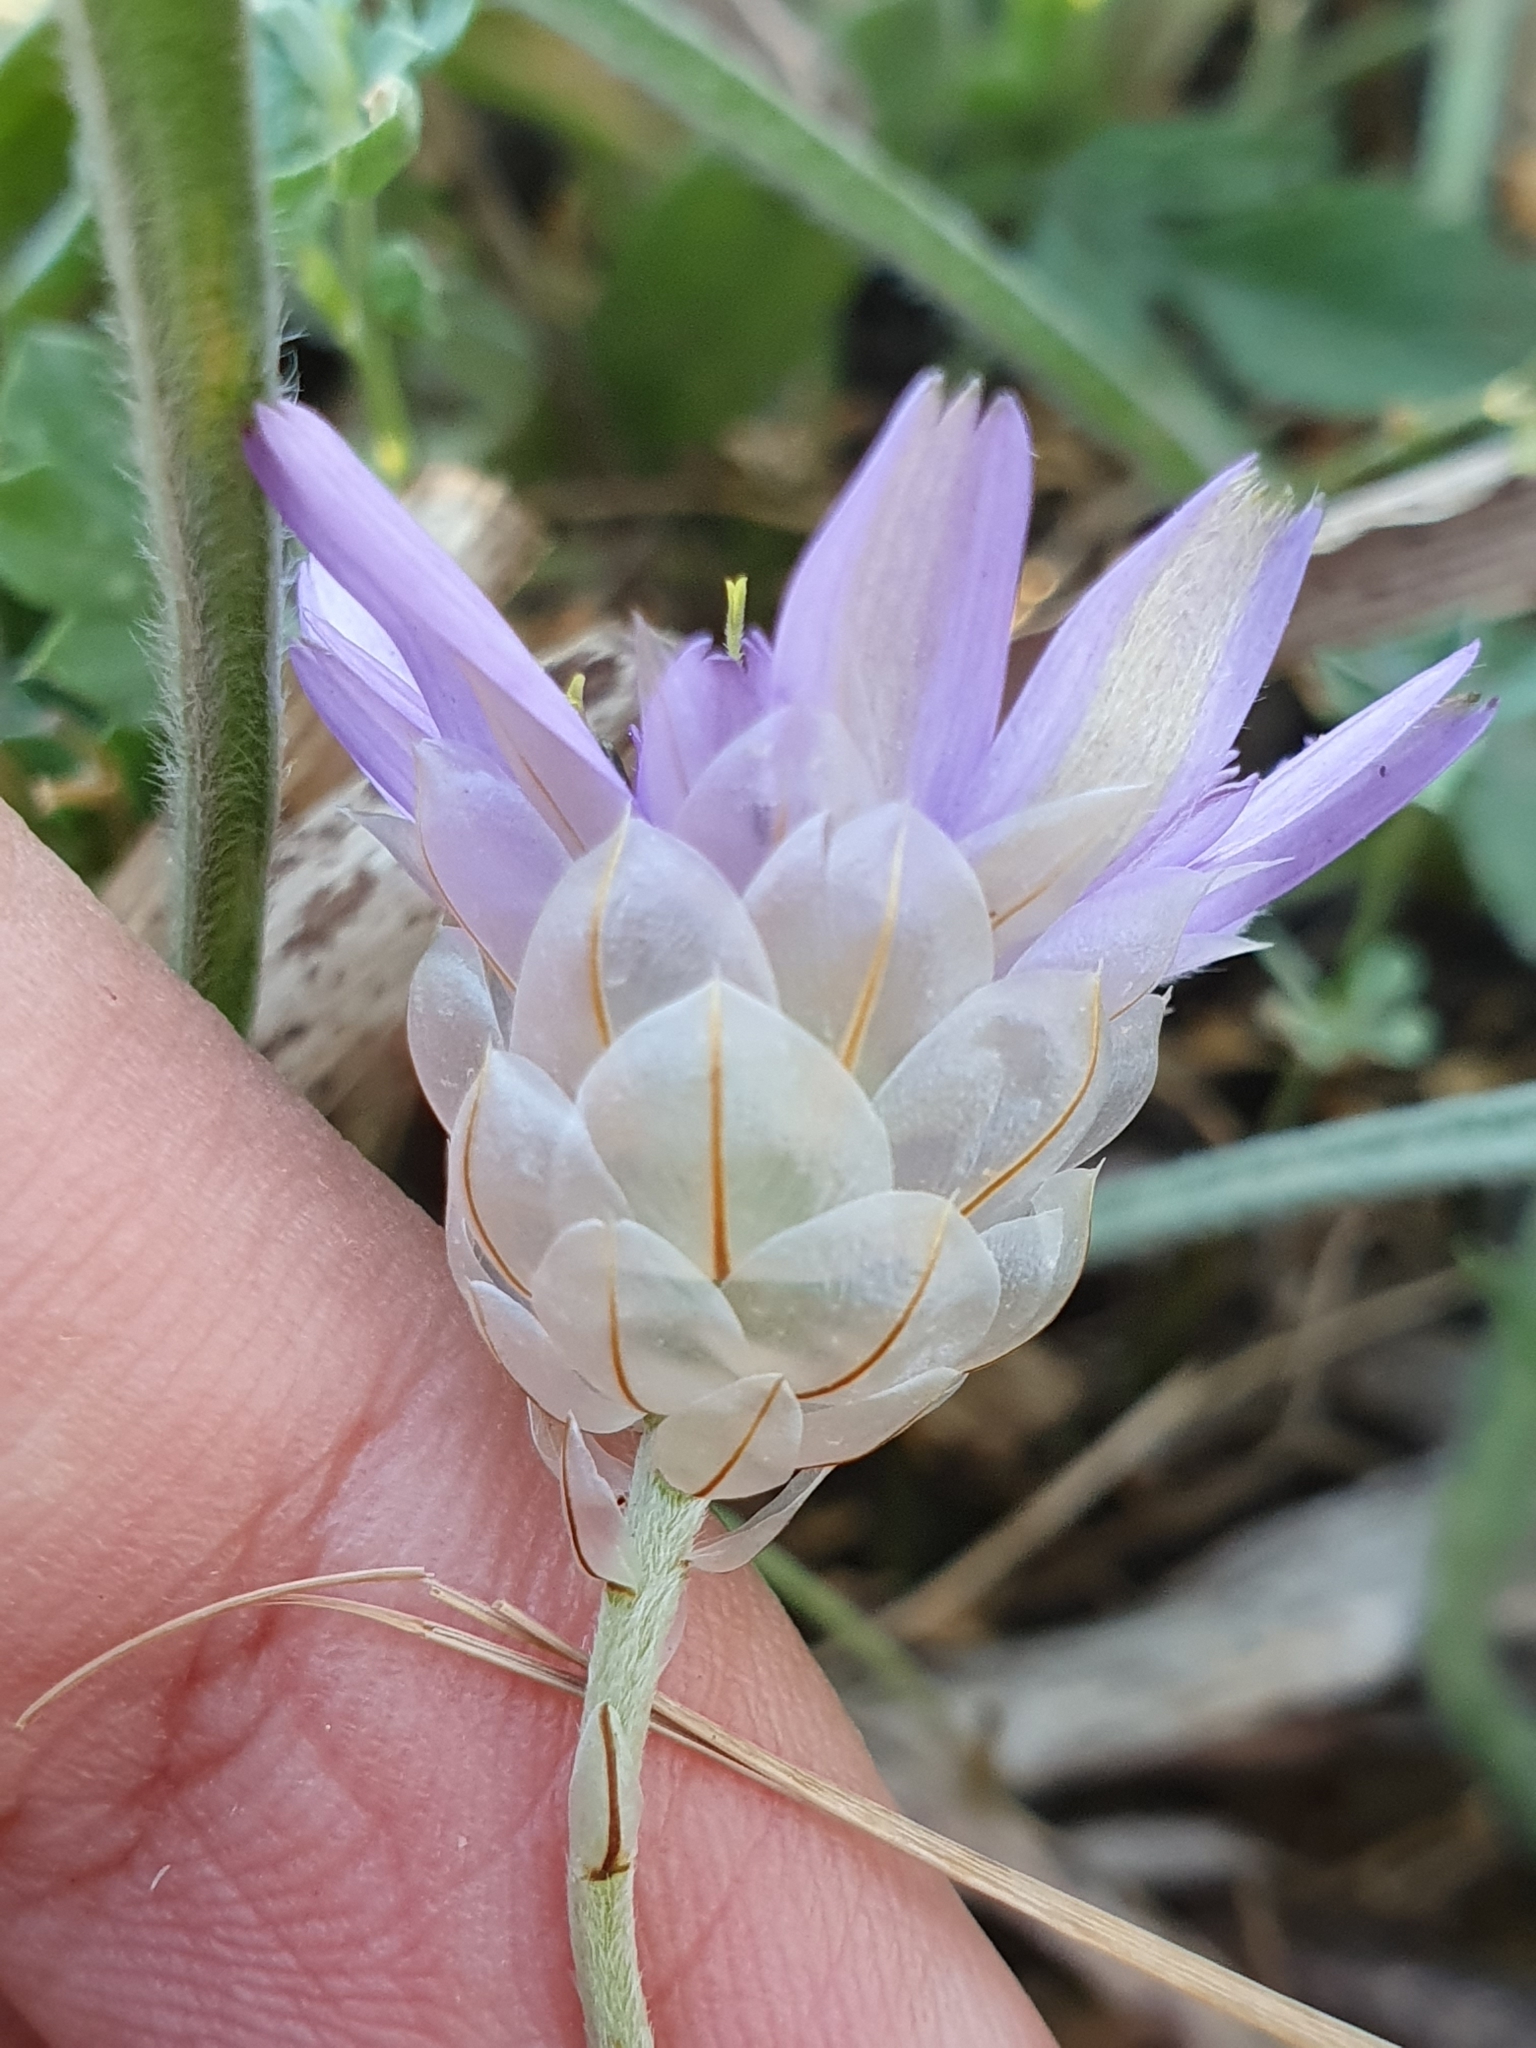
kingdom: Plantae
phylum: Tracheophyta
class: Magnoliopsida
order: Asterales
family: Asteraceae
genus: Catananche
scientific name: Catananche caerulea
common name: Blue cupidone
